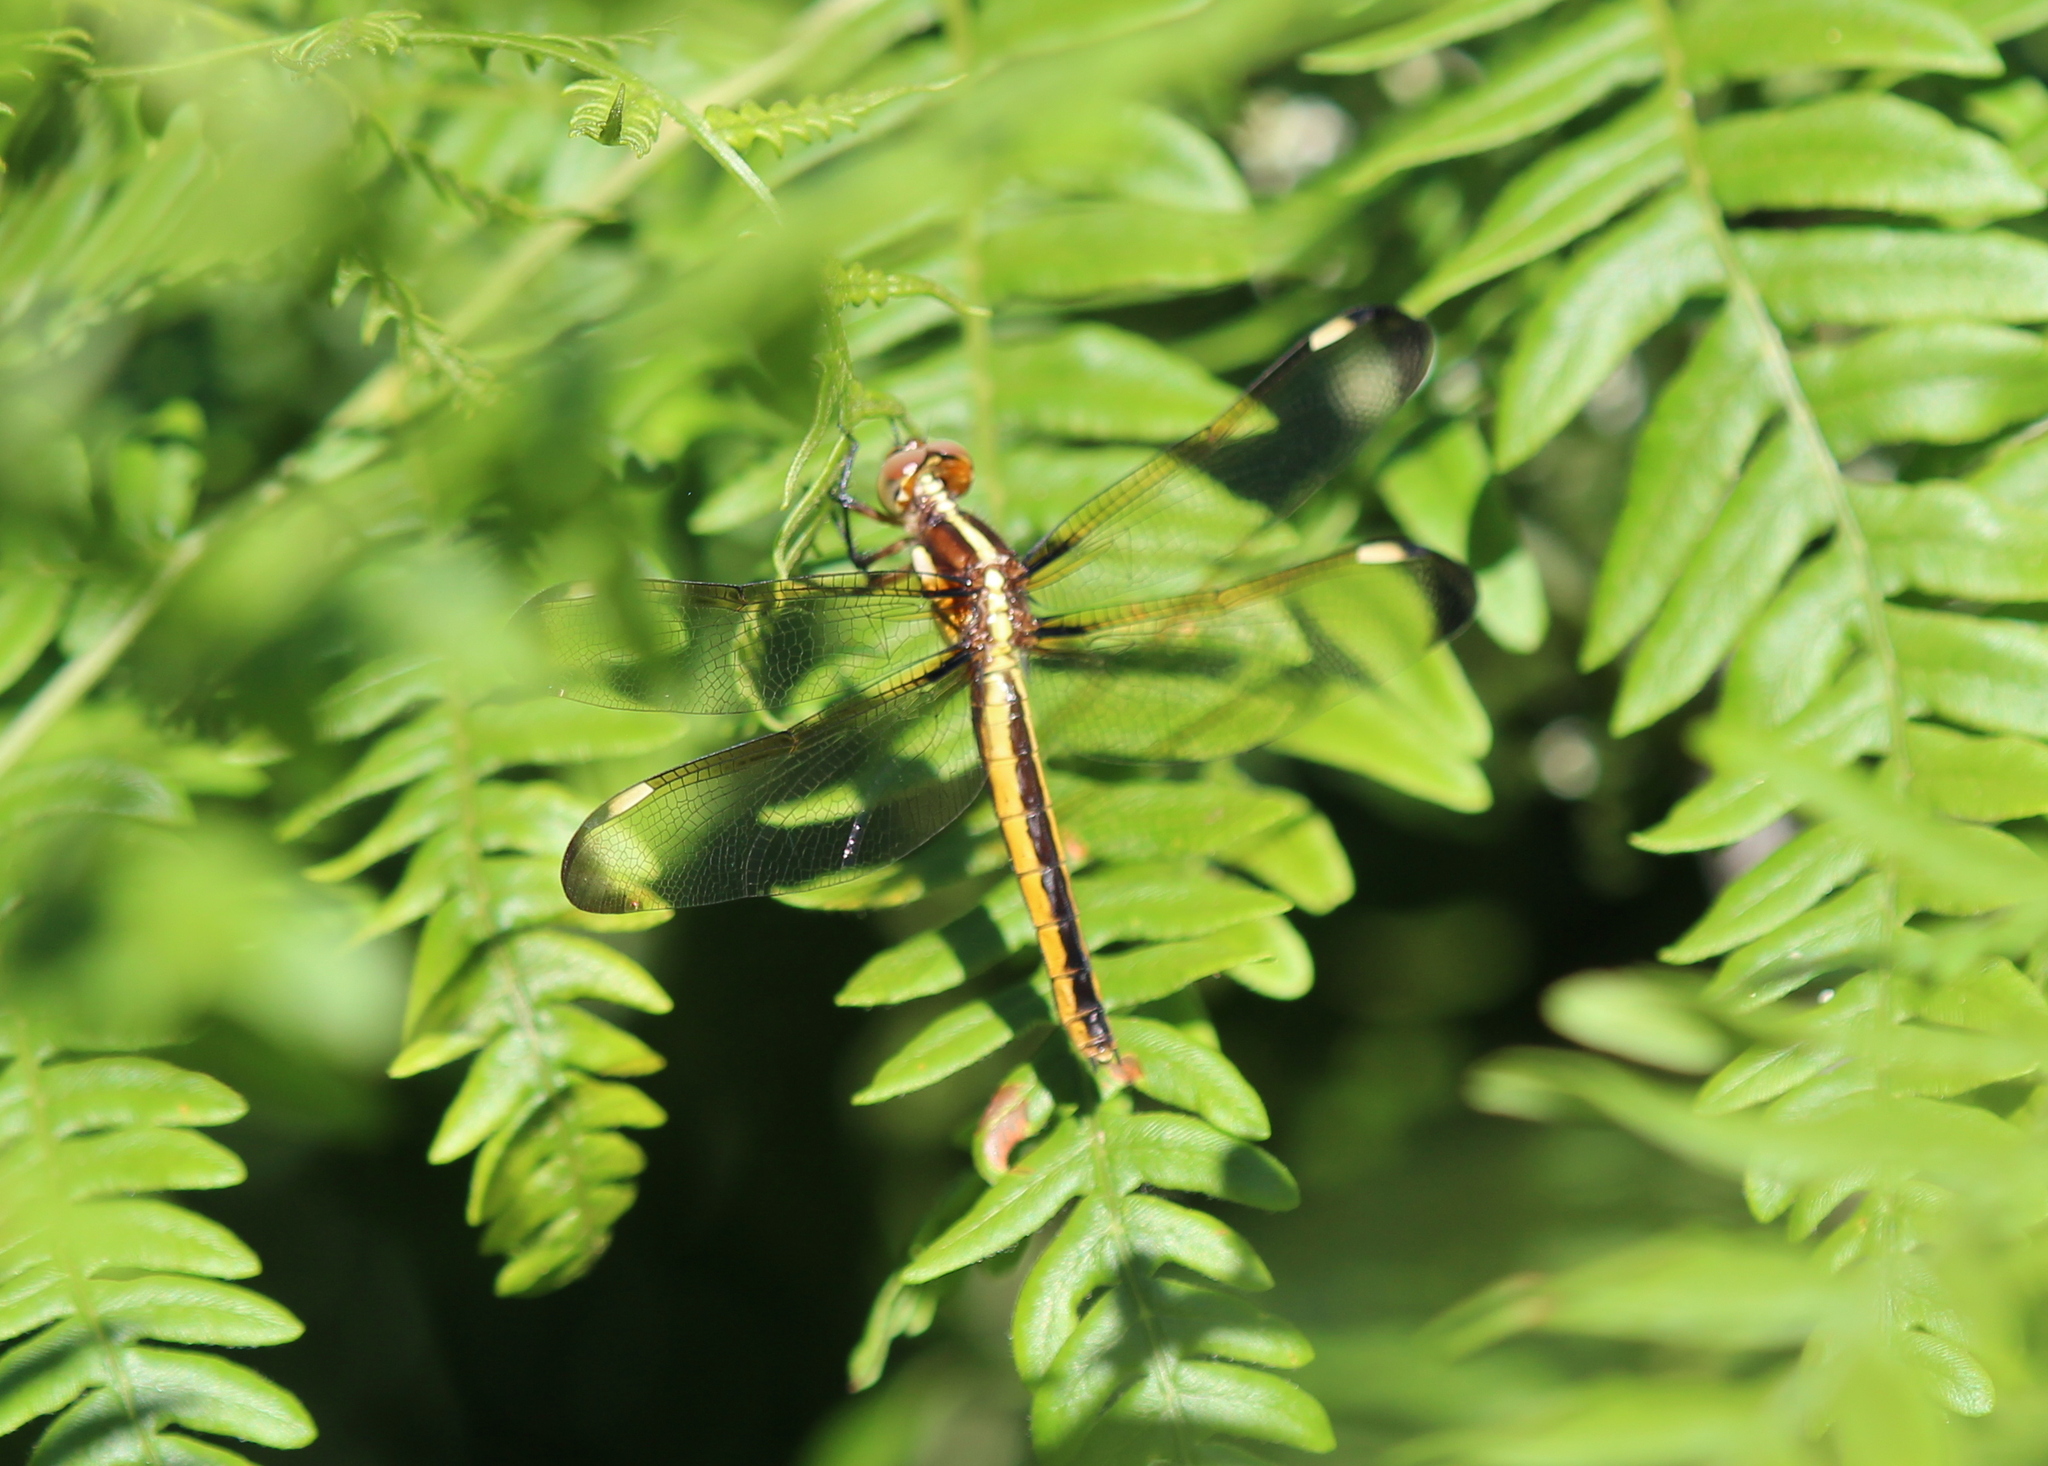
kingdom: Animalia
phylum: Arthropoda
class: Insecta
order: Odonata
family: Libellulidae
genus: Libellula
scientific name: Libellula cyanea
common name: Spangled skimmer
